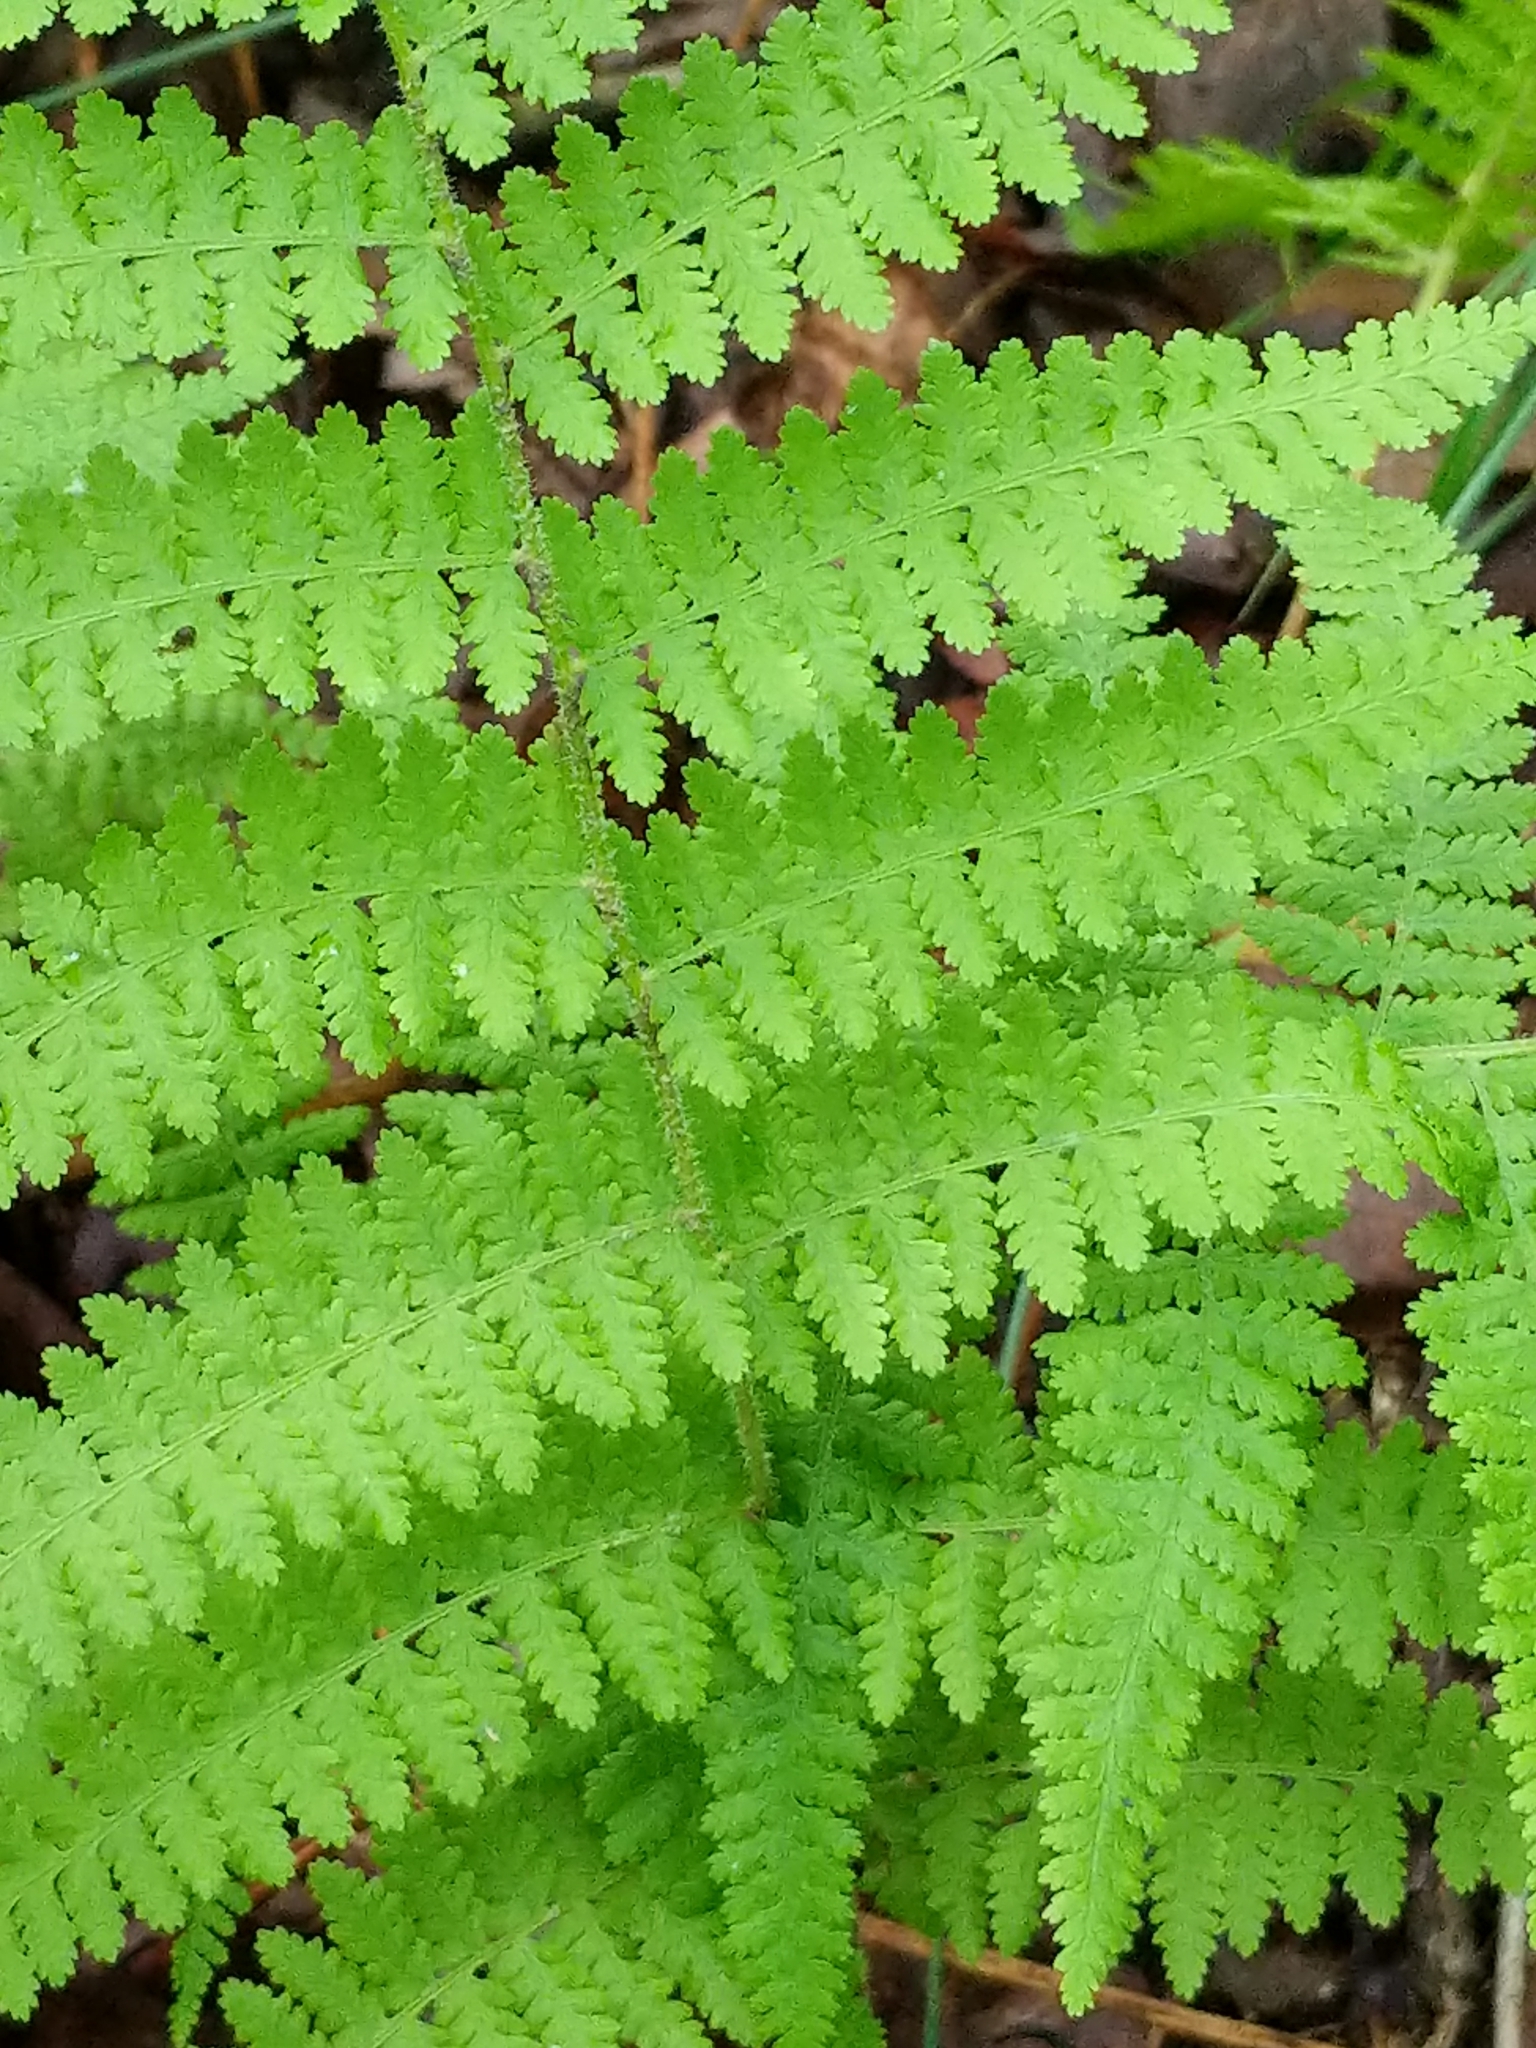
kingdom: Plantae
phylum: Tracheophyta
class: Polypodiopsida
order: Polypodiales
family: Dennstaedtiaceae
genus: Sitobolium
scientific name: Sitobolium punctilobum
